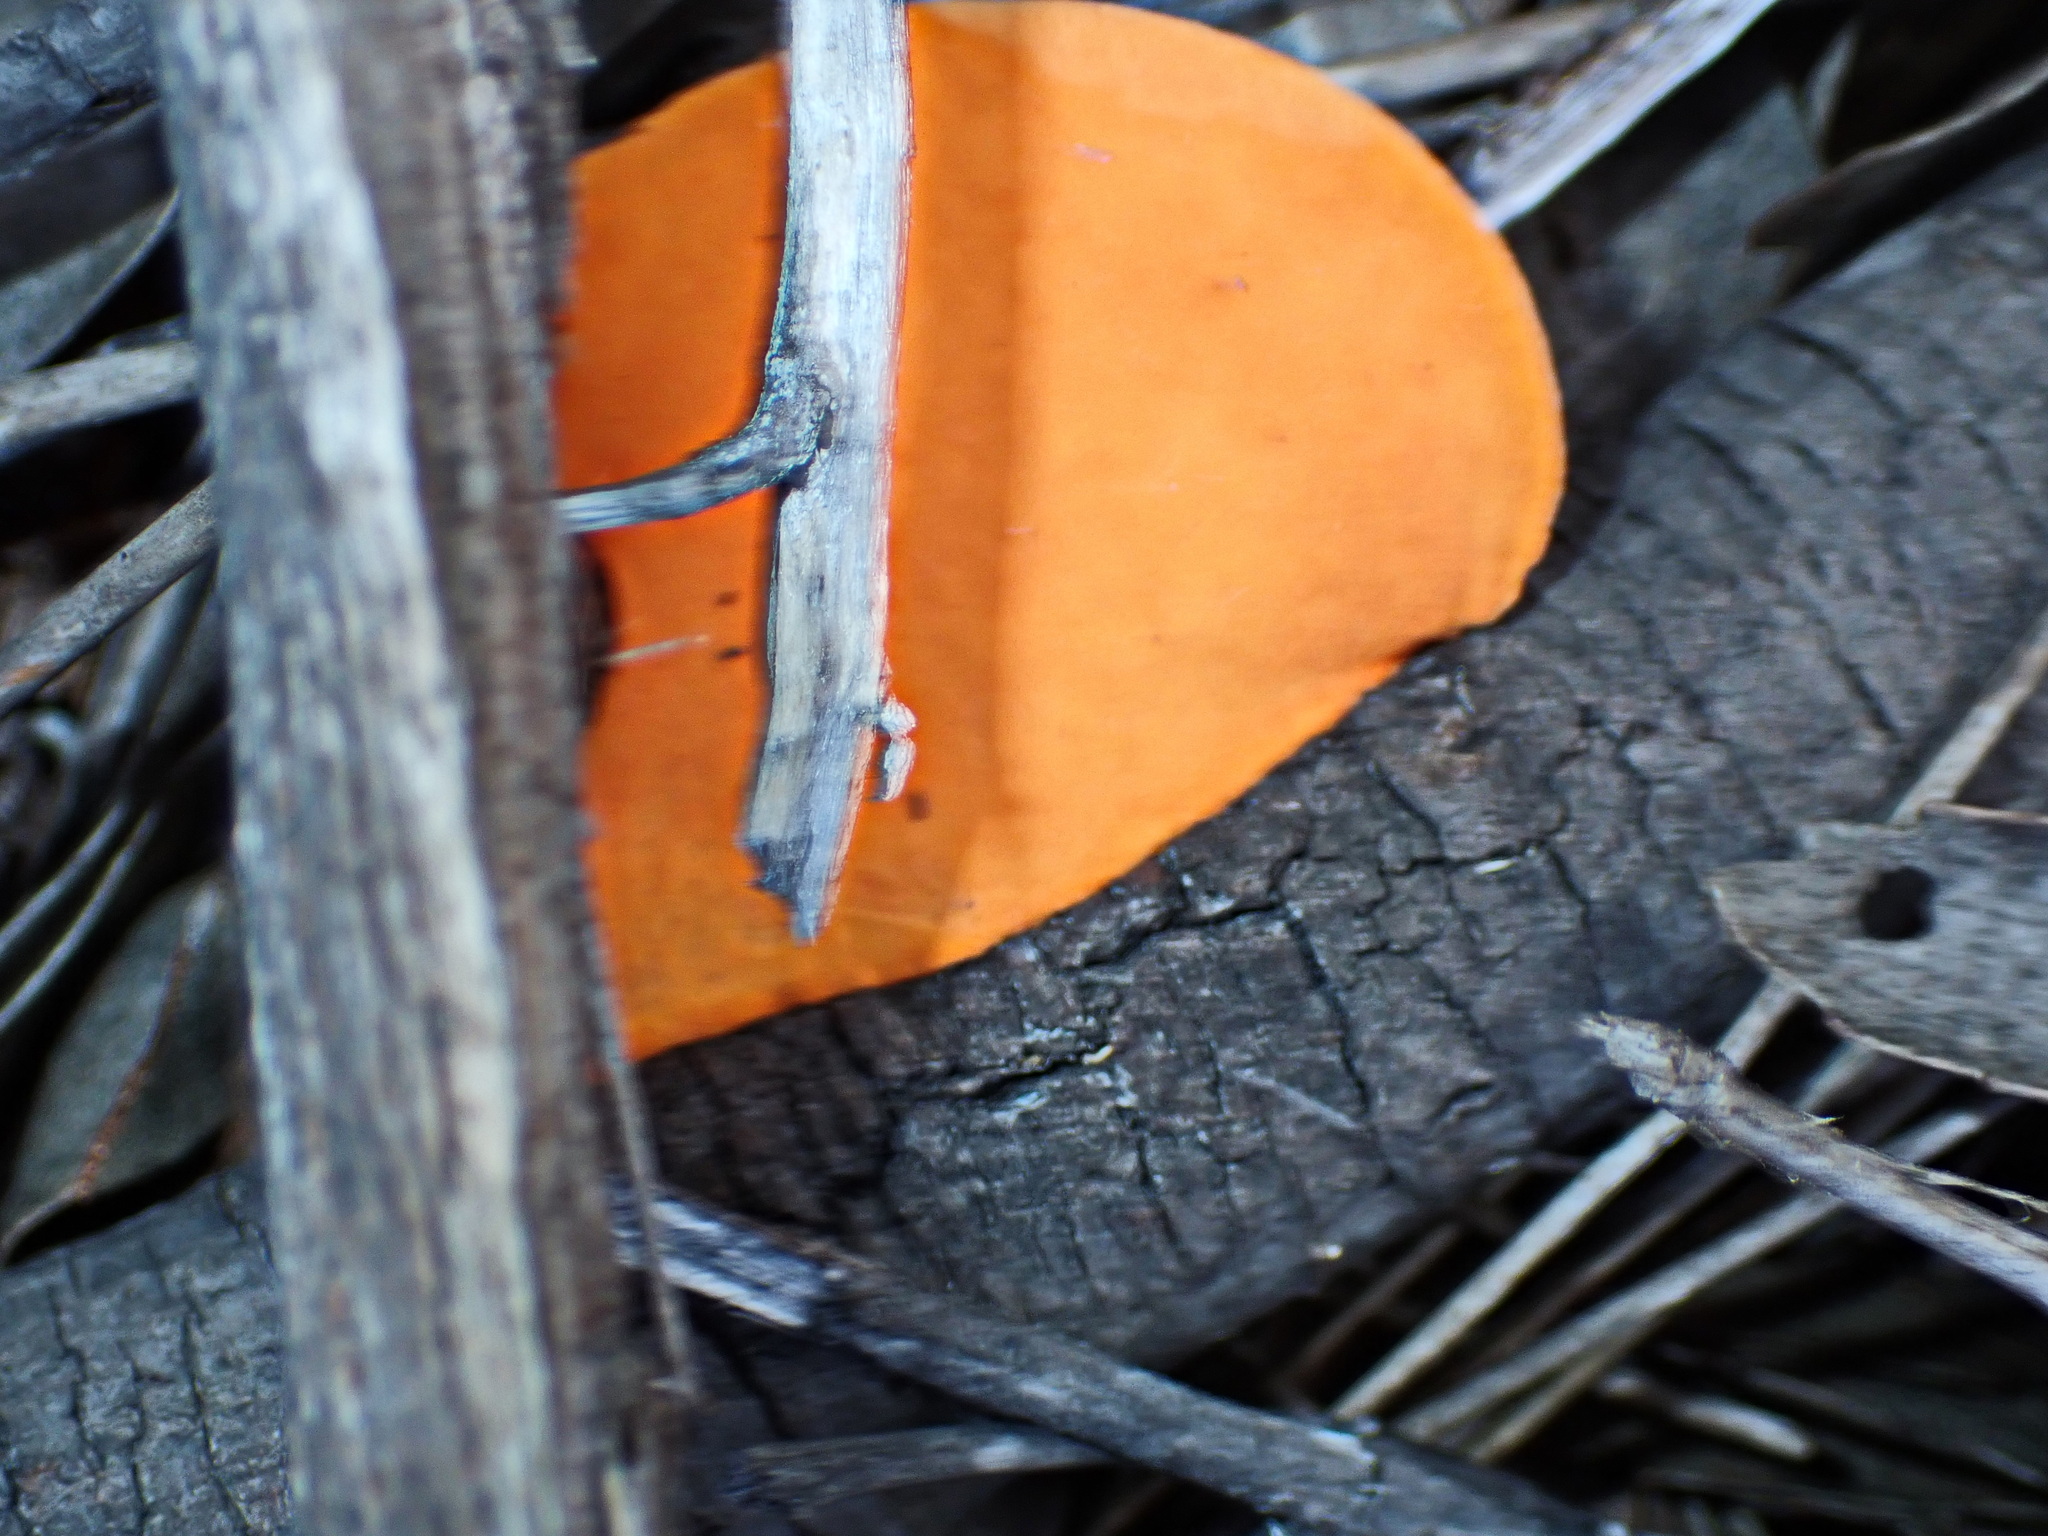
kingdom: Fungi
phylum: Basidiomycota
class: Agaricomycetes
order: Polyporales
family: Polyporaceae
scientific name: Polyporaceae
